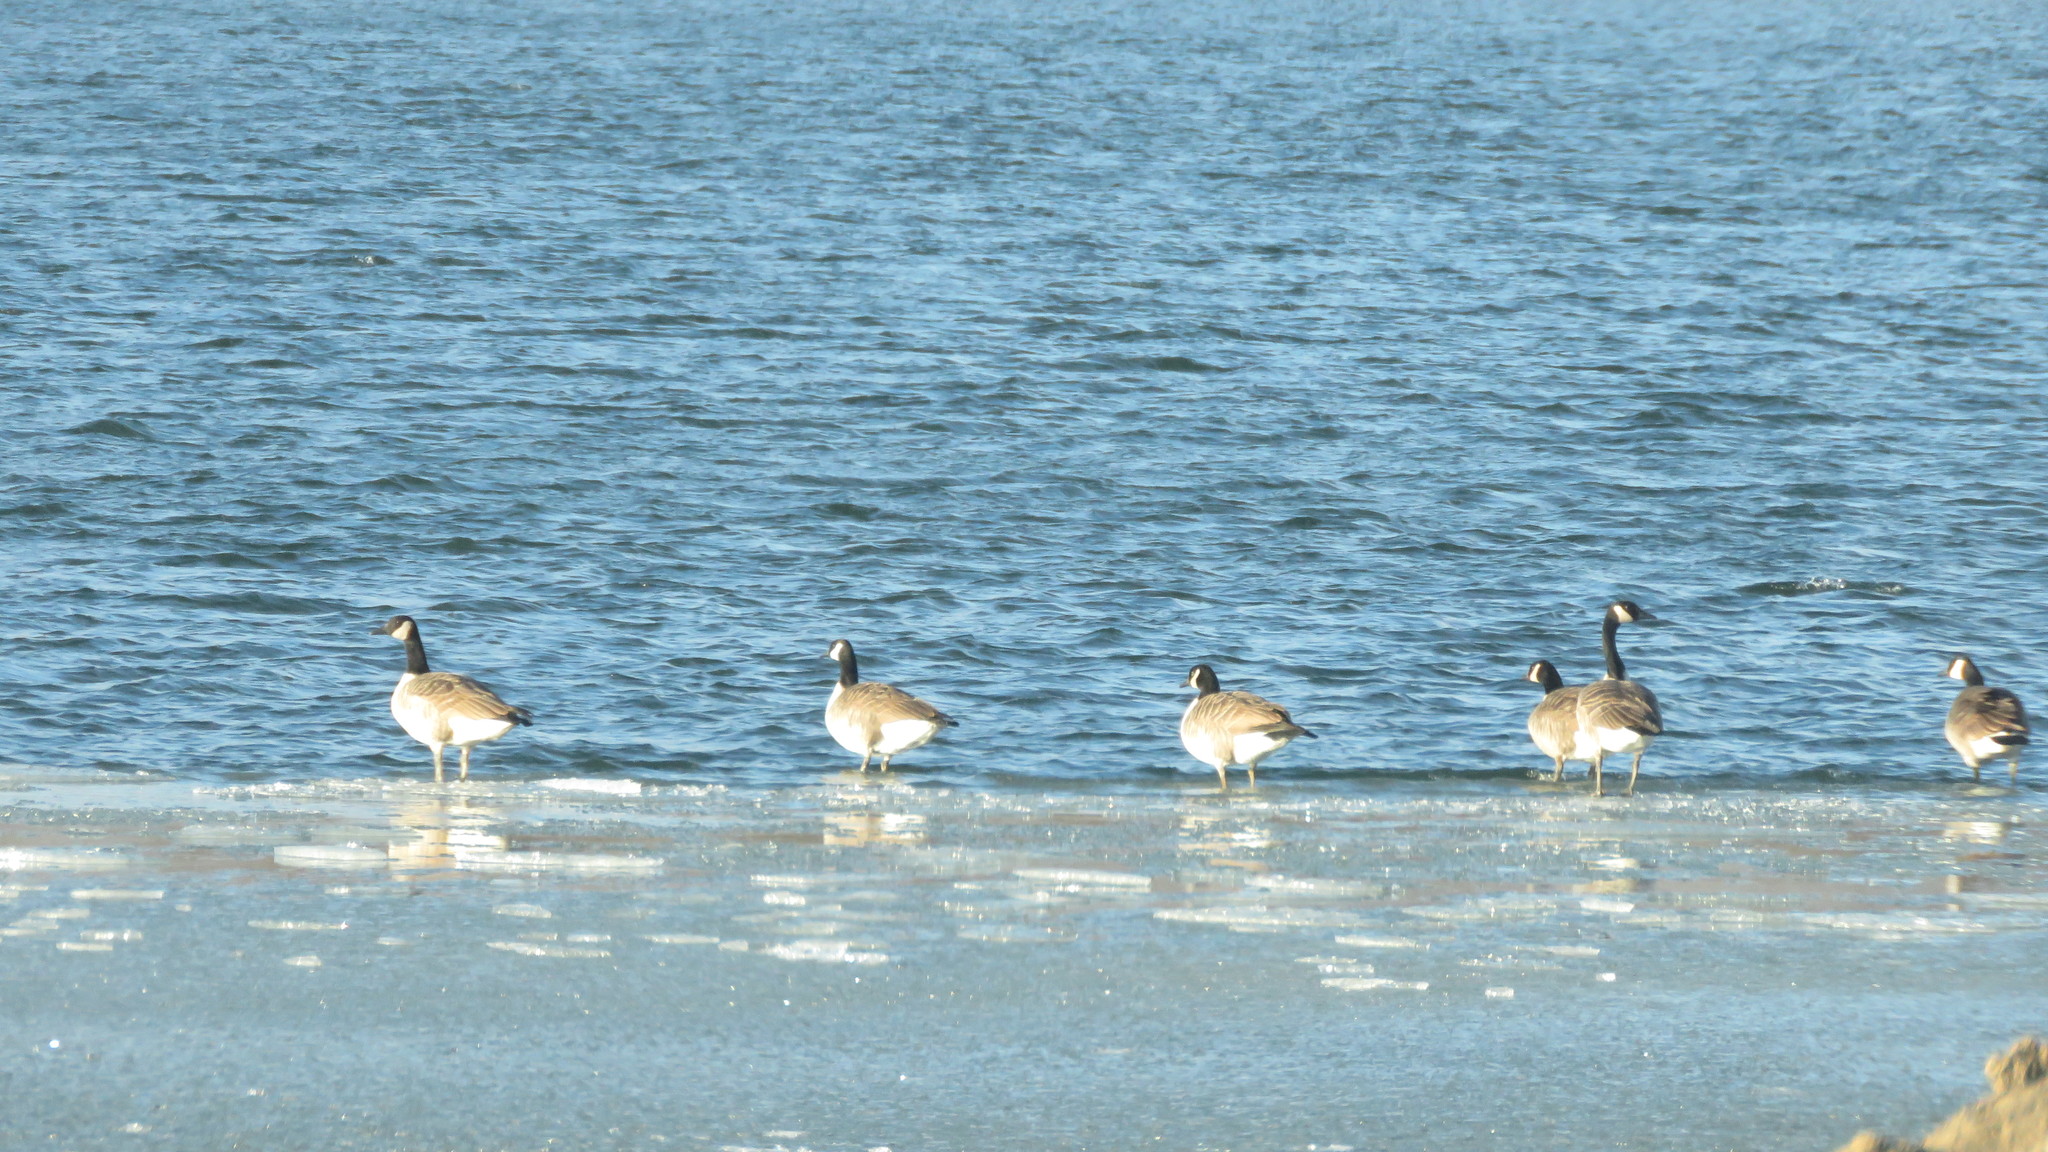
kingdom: Animalia
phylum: Chordata
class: Aves
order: Anseriformes
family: Anatidae
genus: Branta
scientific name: Branta canadensis
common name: Canada goose
